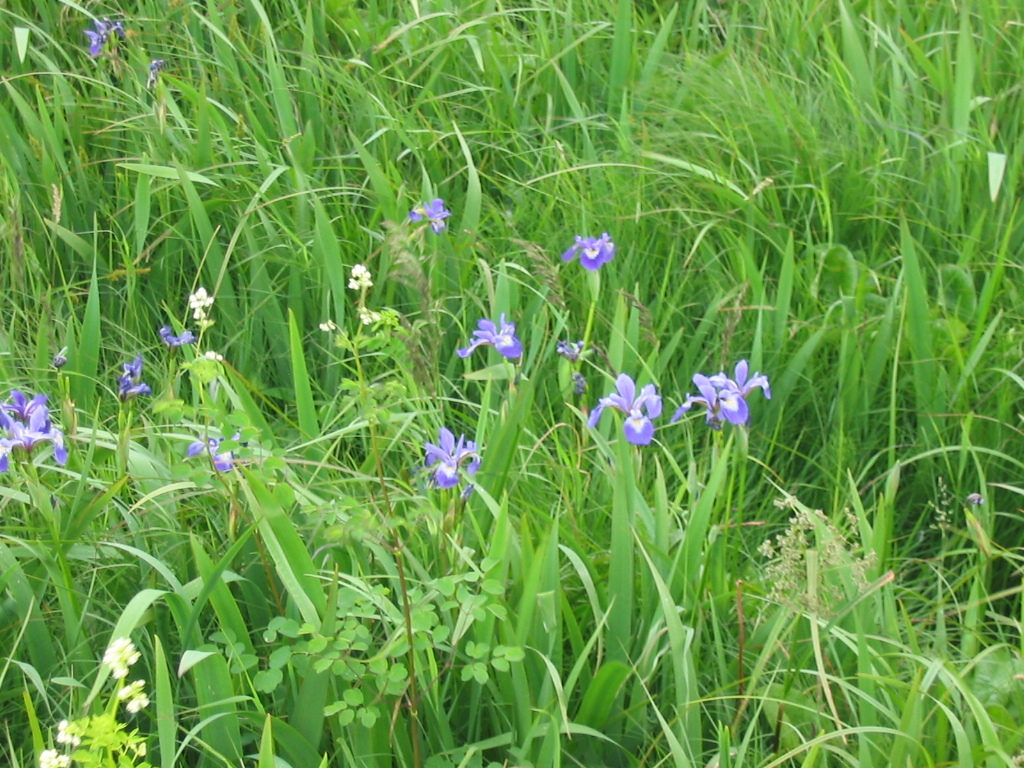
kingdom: Plantae
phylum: Tracheophyta
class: Liliopsida
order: Asparagales
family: Iridaceae
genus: Iris
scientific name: Iris versicolor
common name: Purple iris
